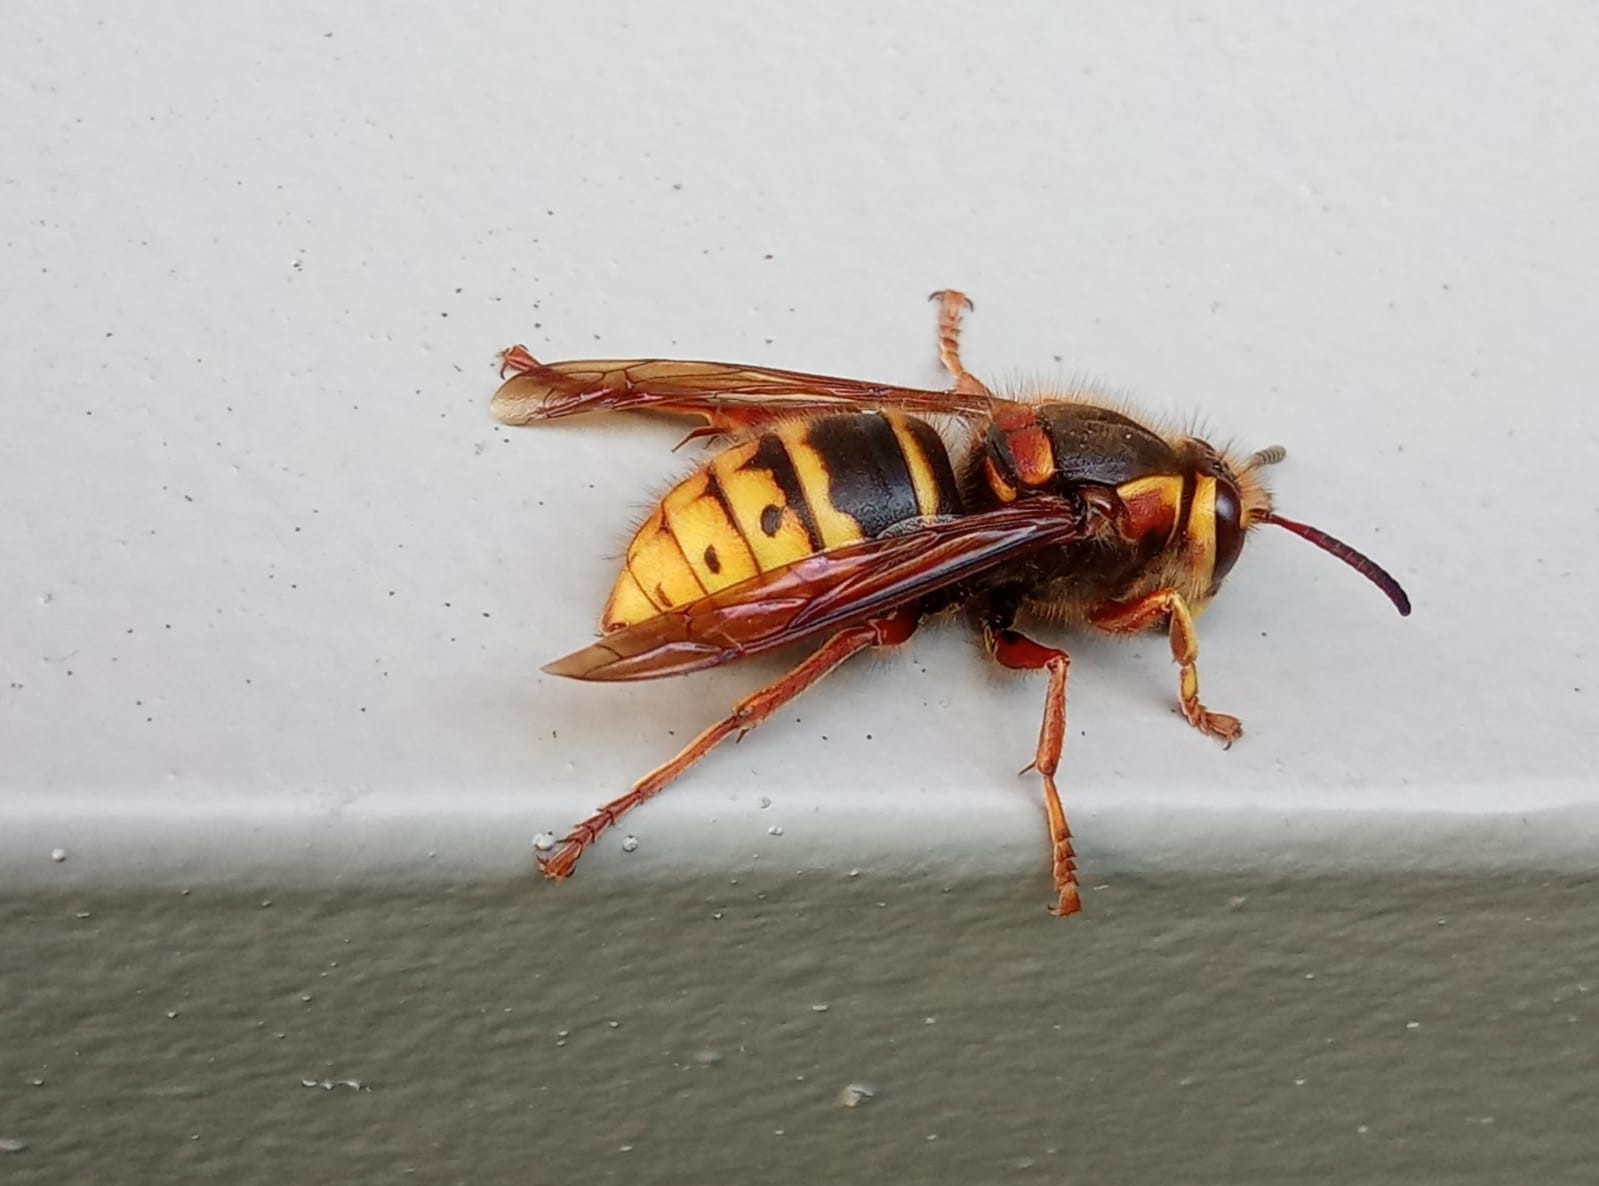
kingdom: Animalia
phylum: Arthropoda
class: Insecta
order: Hymenoptera
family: Vespidae
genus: Dolichovespula
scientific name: Dolichovespula media
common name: Median wasp
